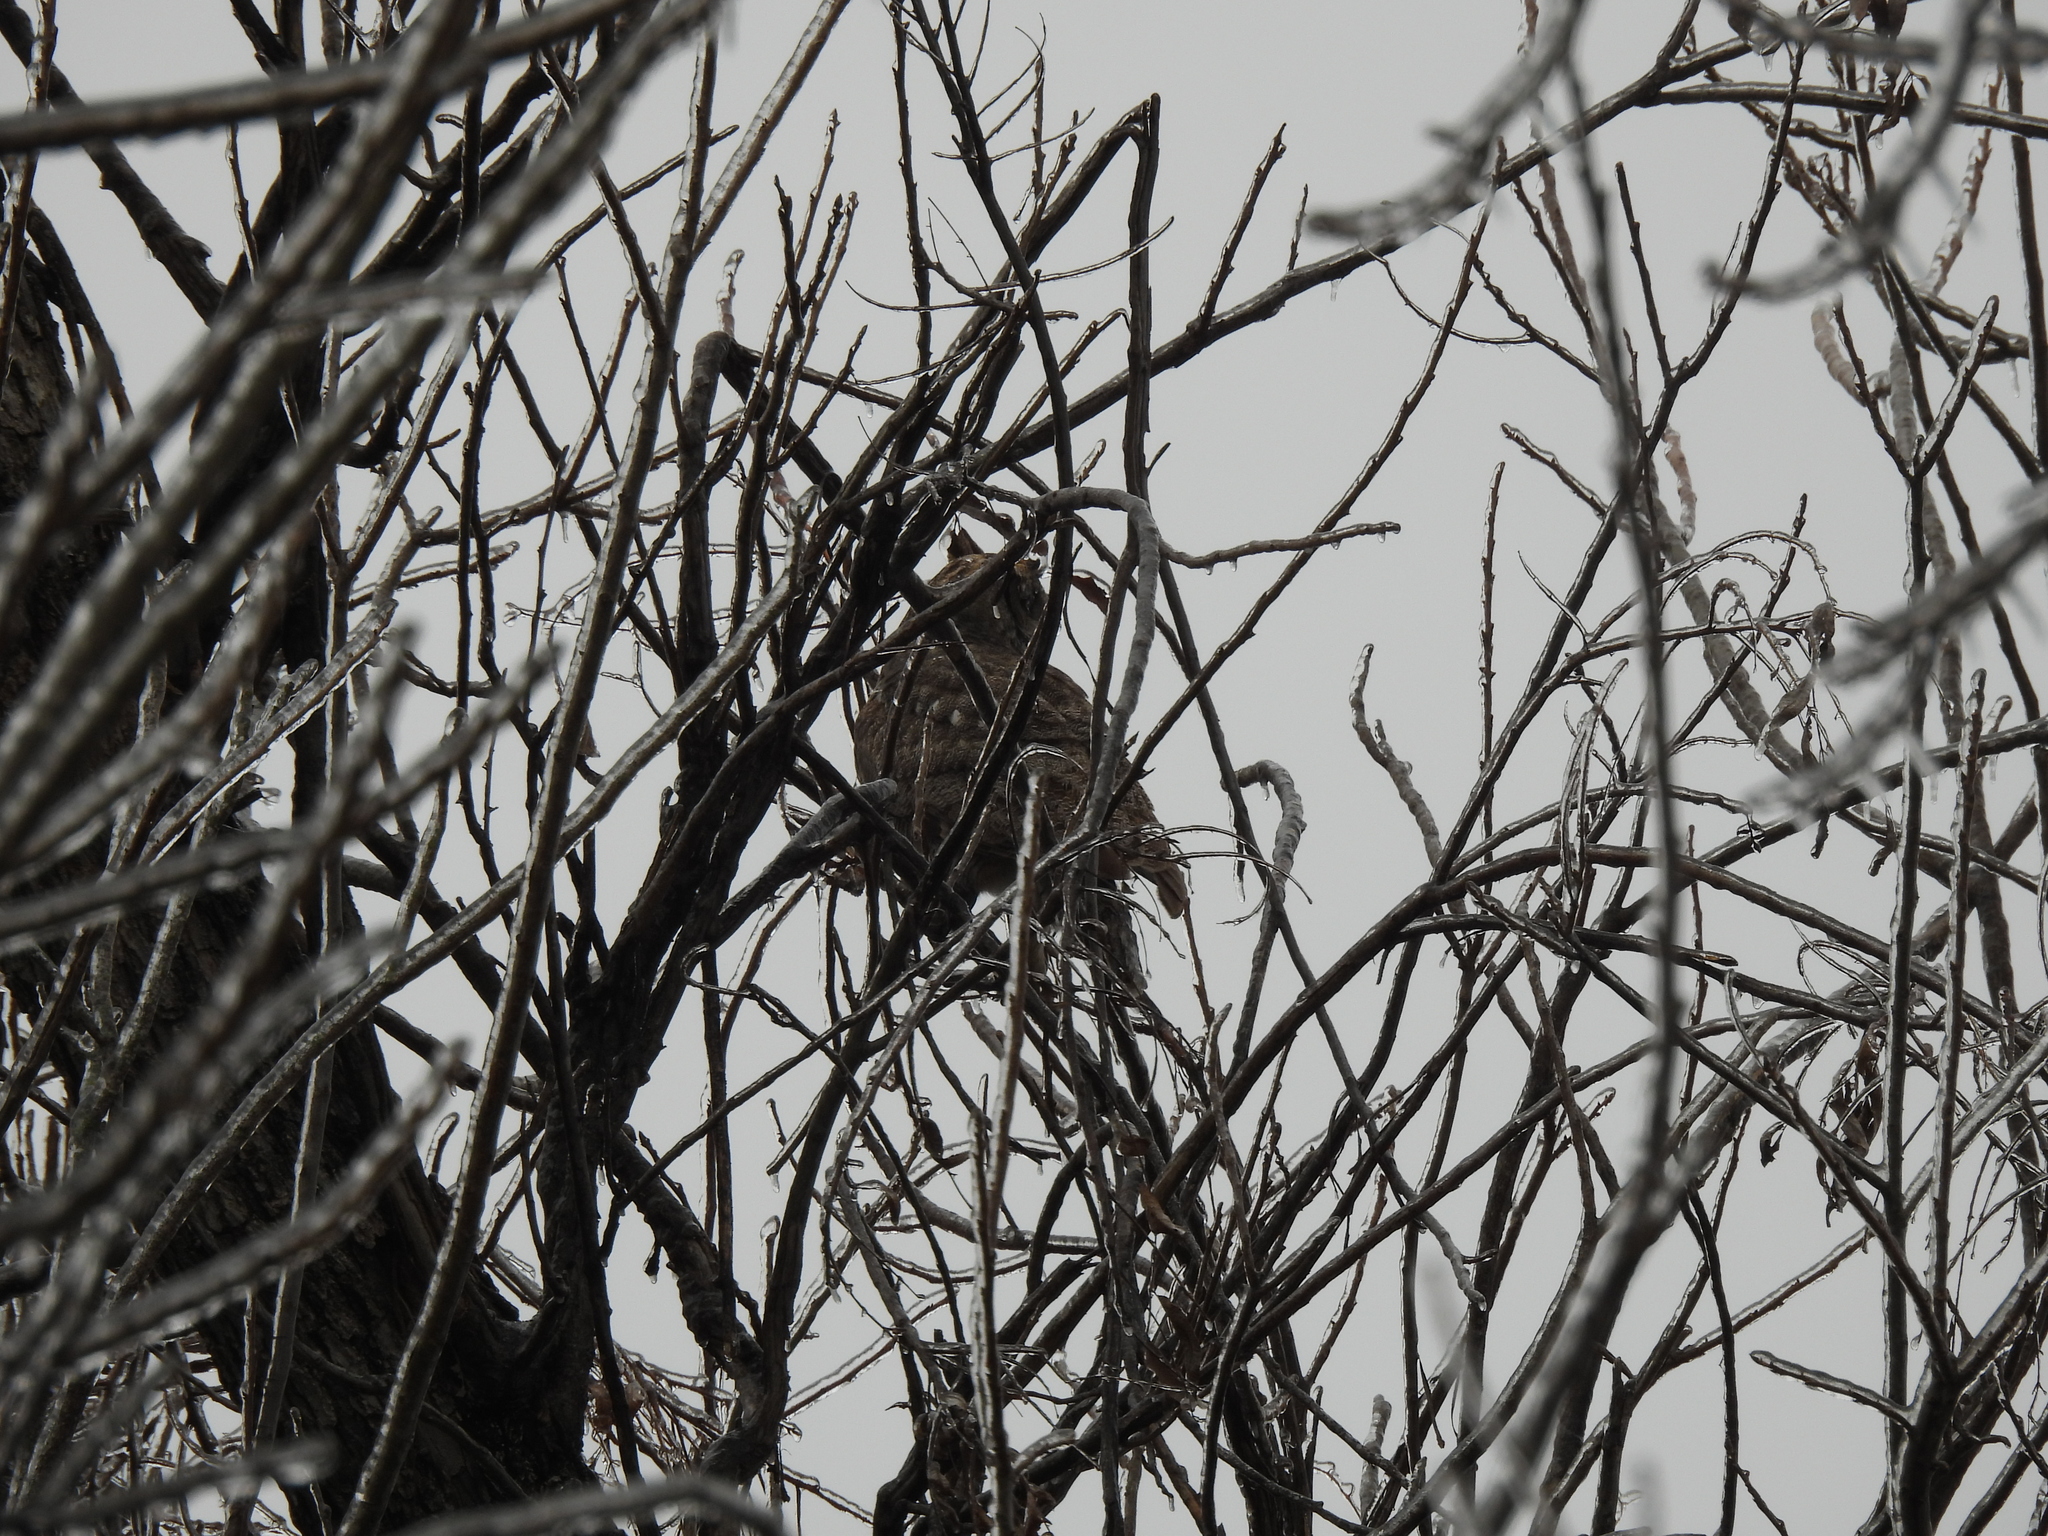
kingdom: Animalia
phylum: Chordata
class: Aves
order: Strigiformes
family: Strigidae
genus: Bubo
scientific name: Bubo virginianus
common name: Great horned owl
